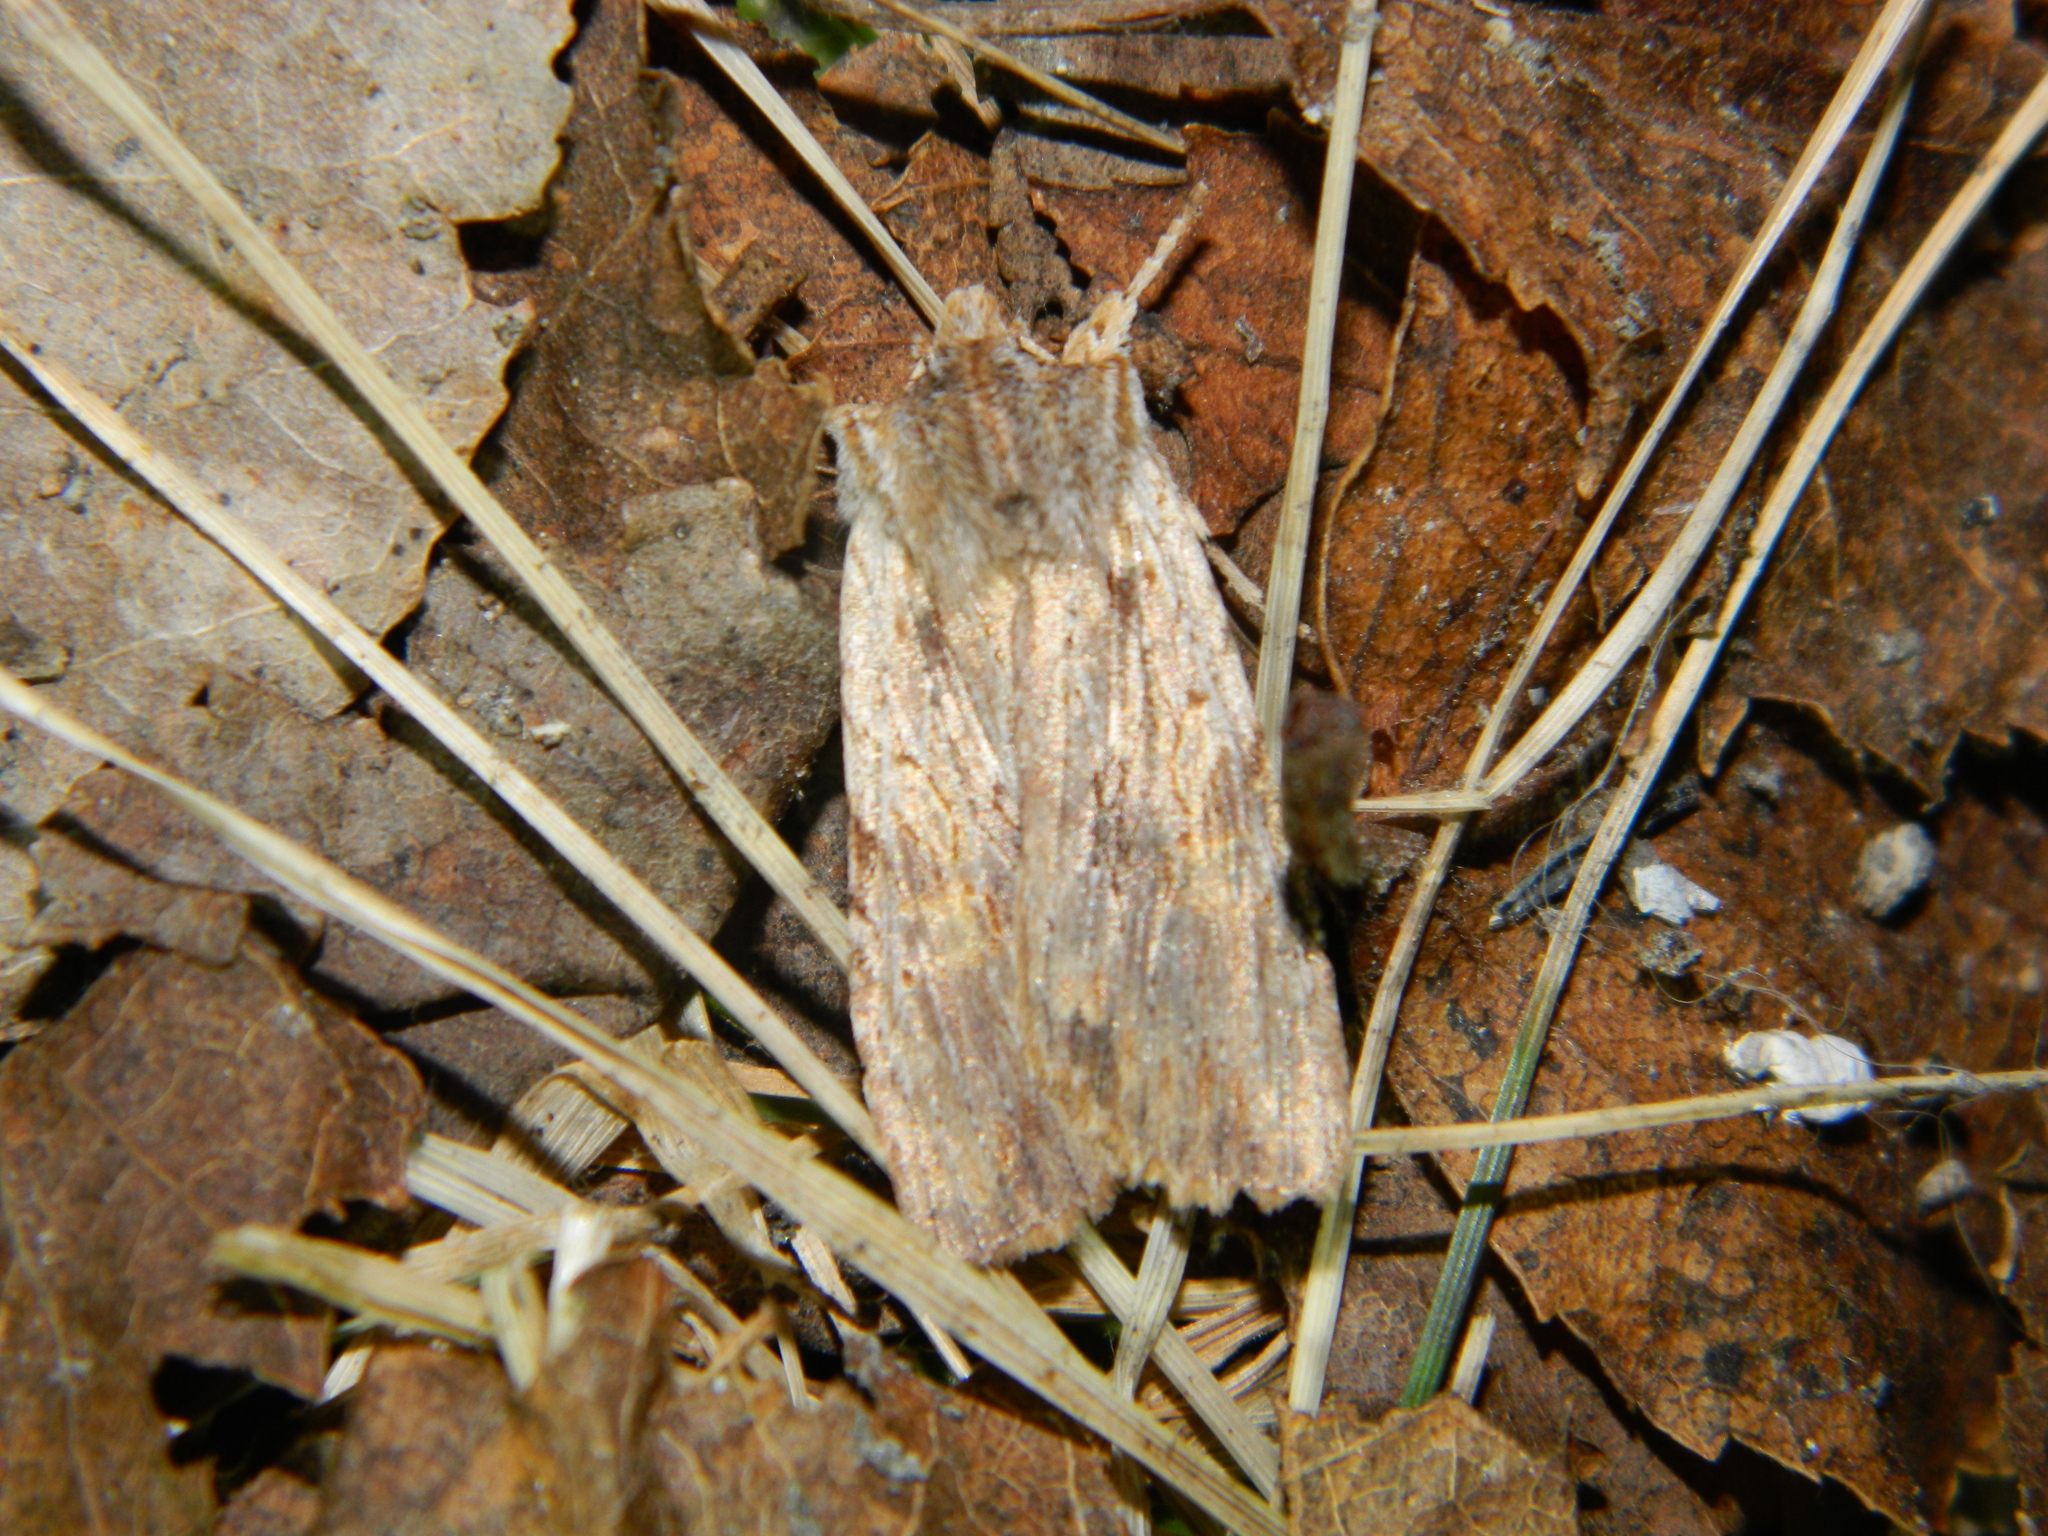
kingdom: Animalia
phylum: Arthropoda
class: Insecta
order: Lepidoptera
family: Noctuidae
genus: Lithophane
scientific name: Lithophane petulca
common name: Wanton pinion
